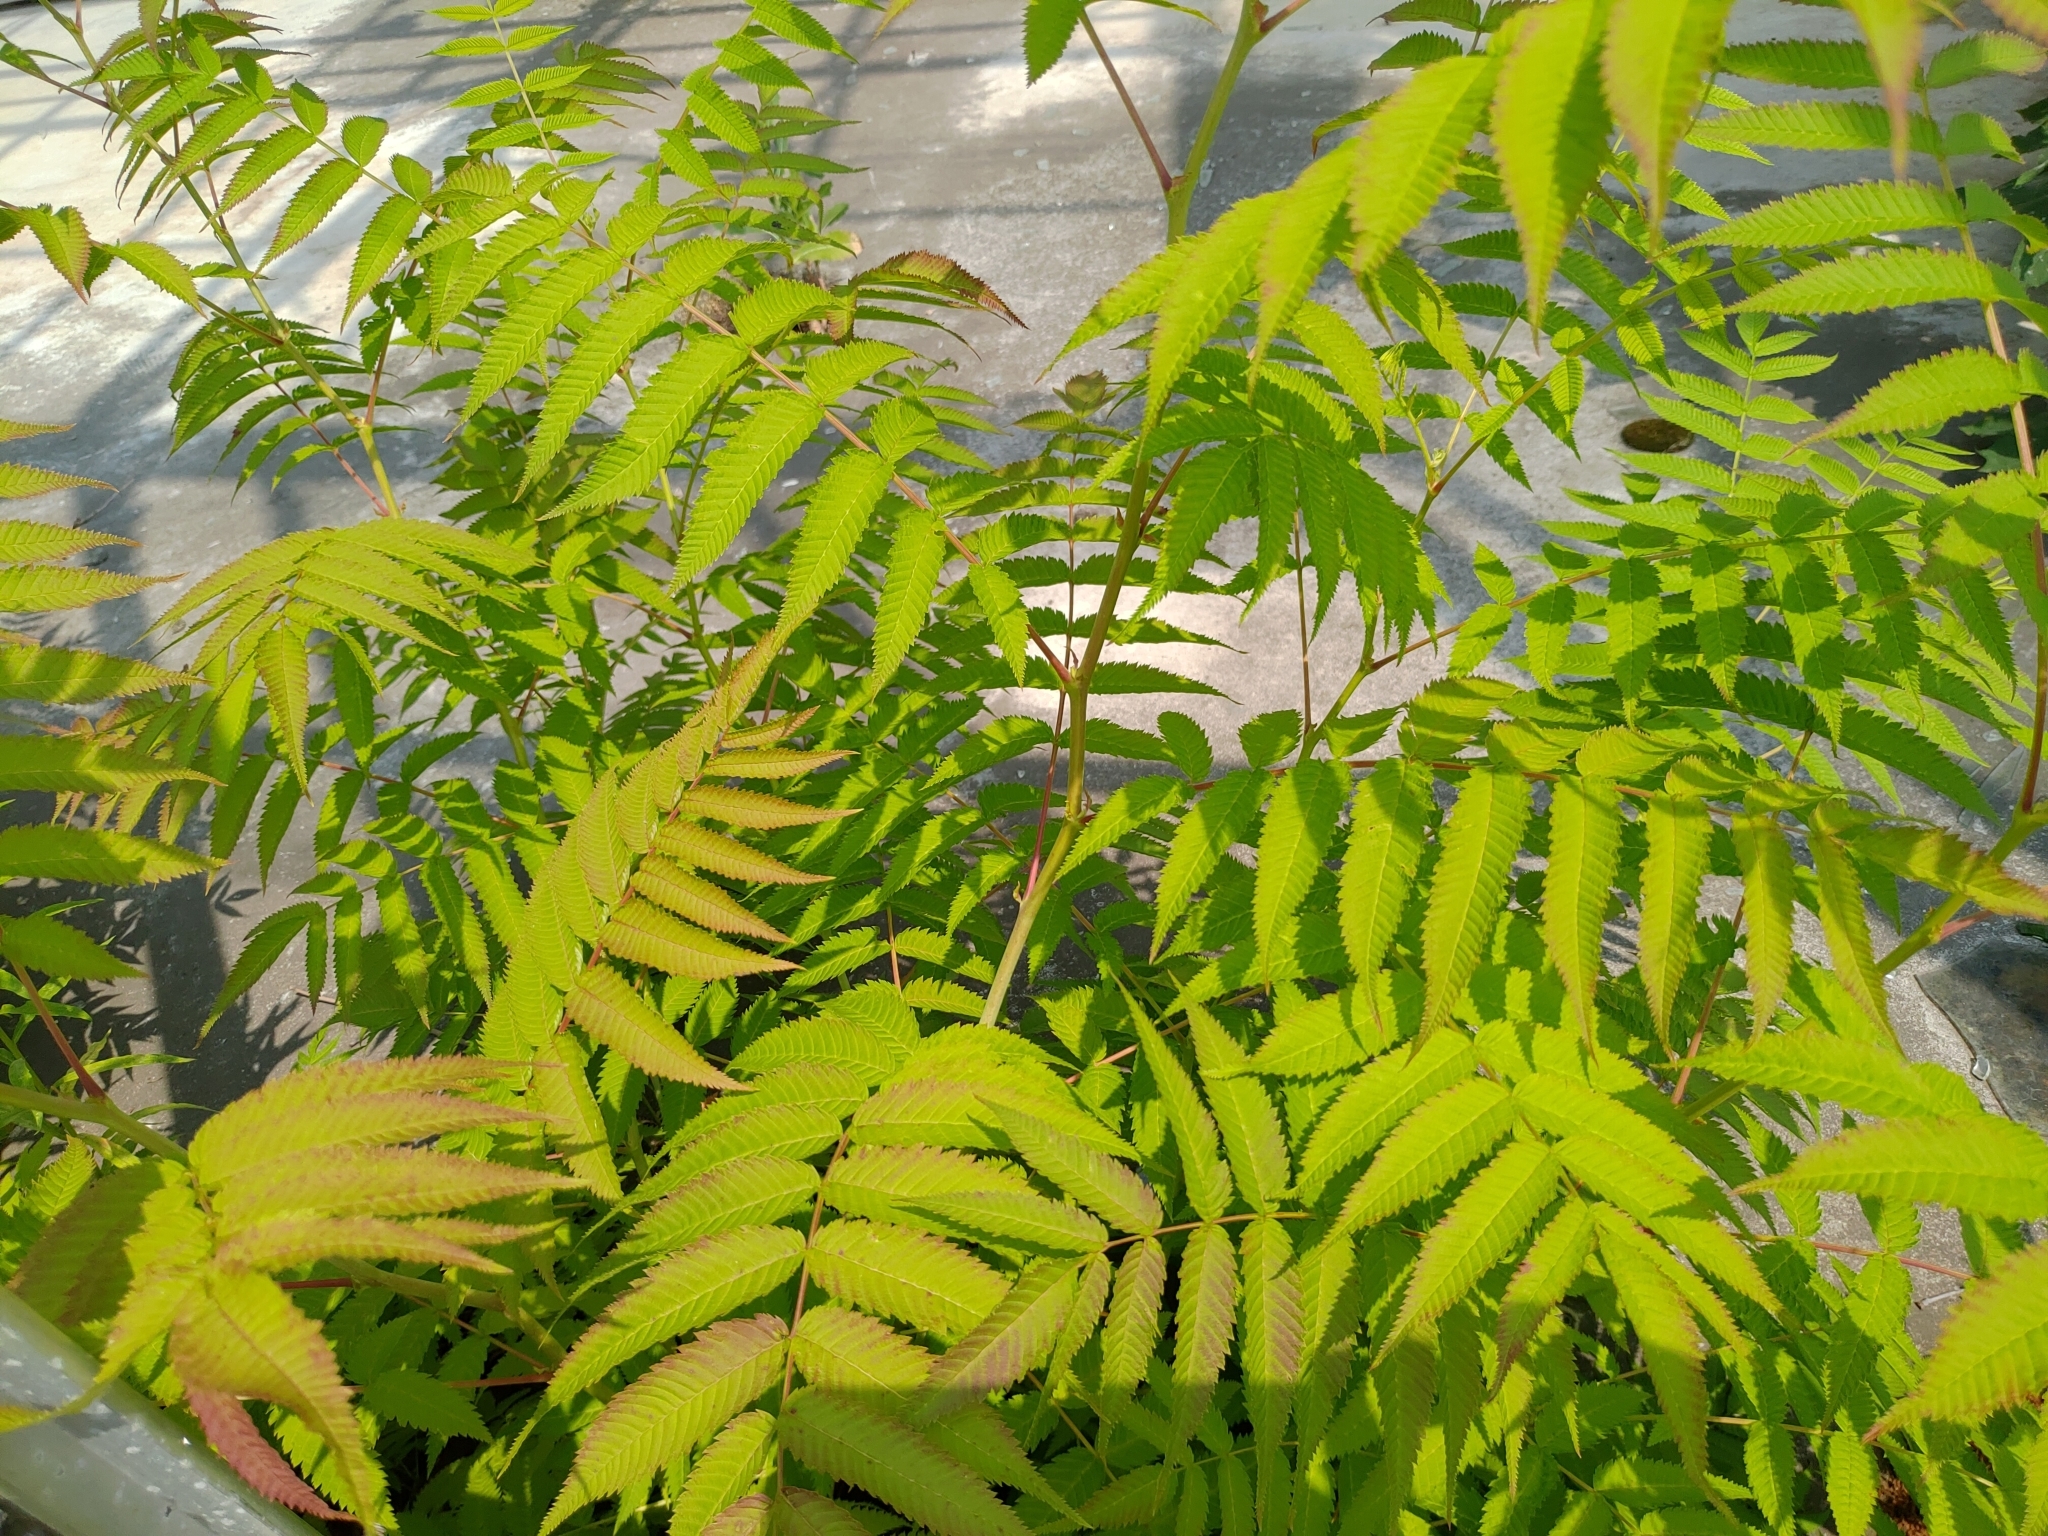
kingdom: Plantae
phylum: Tracheophyta
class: Magnoliopsida
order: Rosales
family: Rosaceae
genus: Sorbaria
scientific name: Sorbaria sorbifolia
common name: False spiraea
